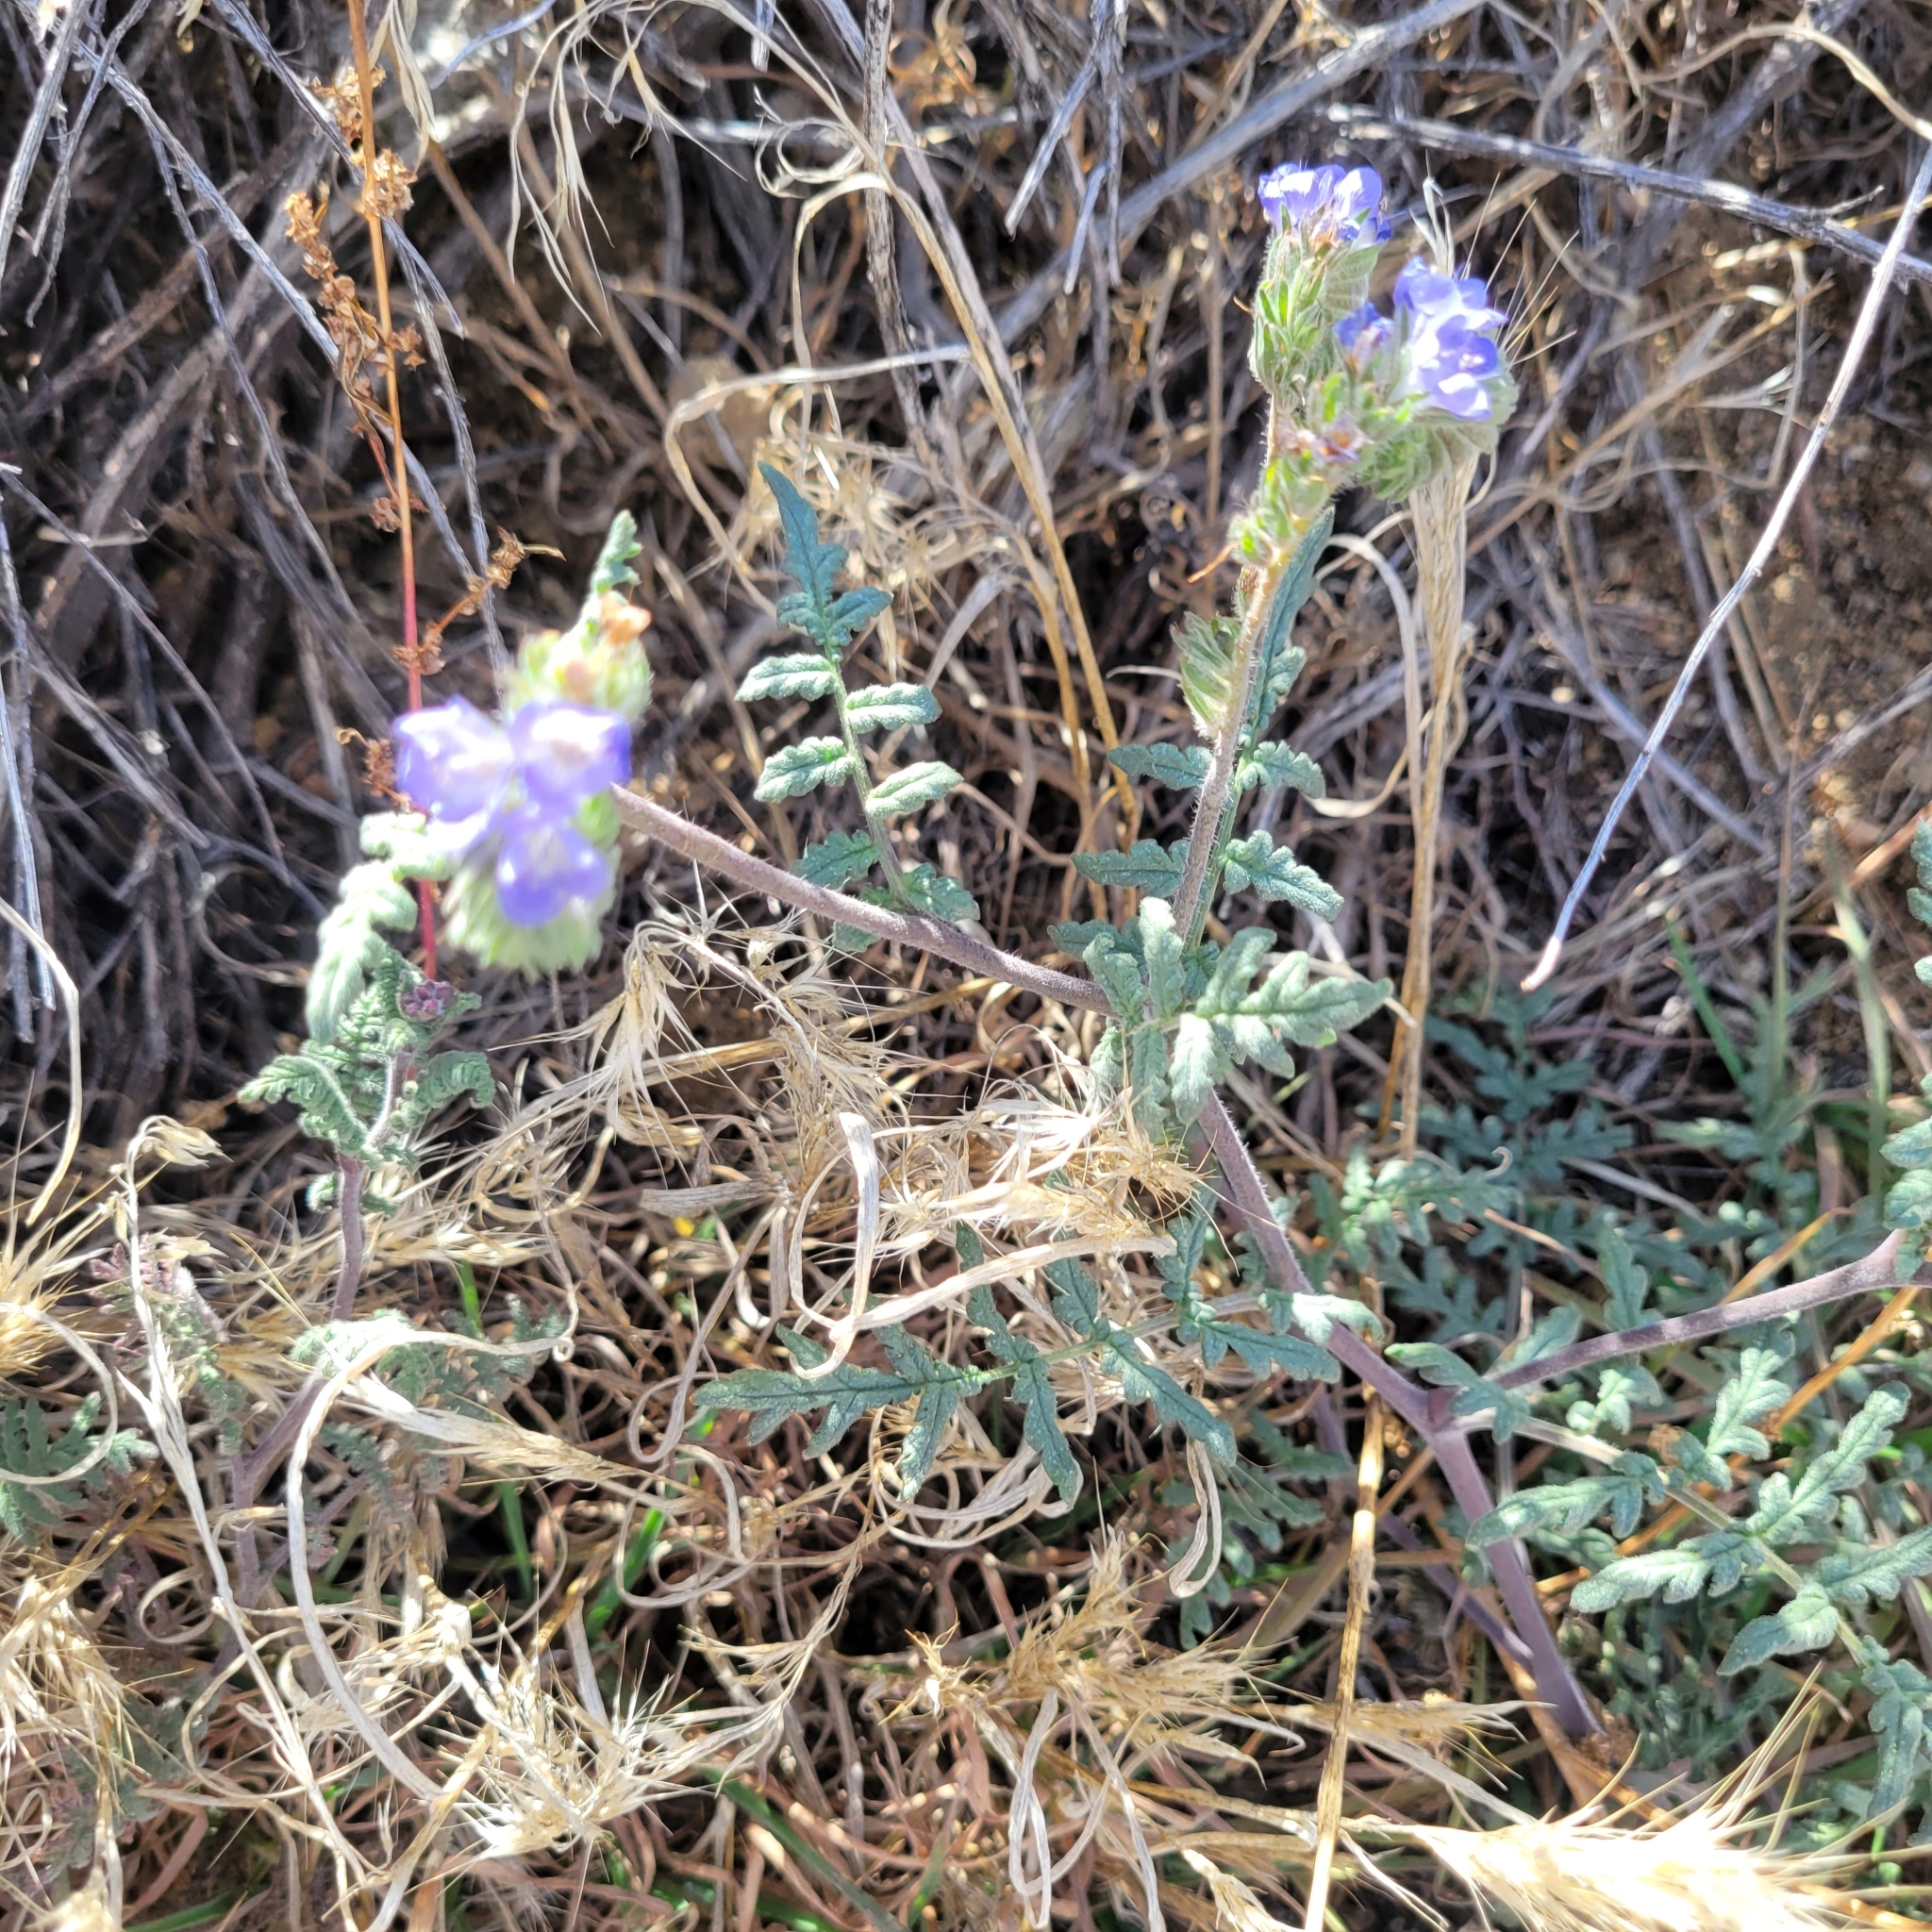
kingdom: Plantae
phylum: Tracheophyta
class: Magnoliopsida
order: Boraginales
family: Hydrophyllaceae
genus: Phacelia
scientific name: Phacelia distans
